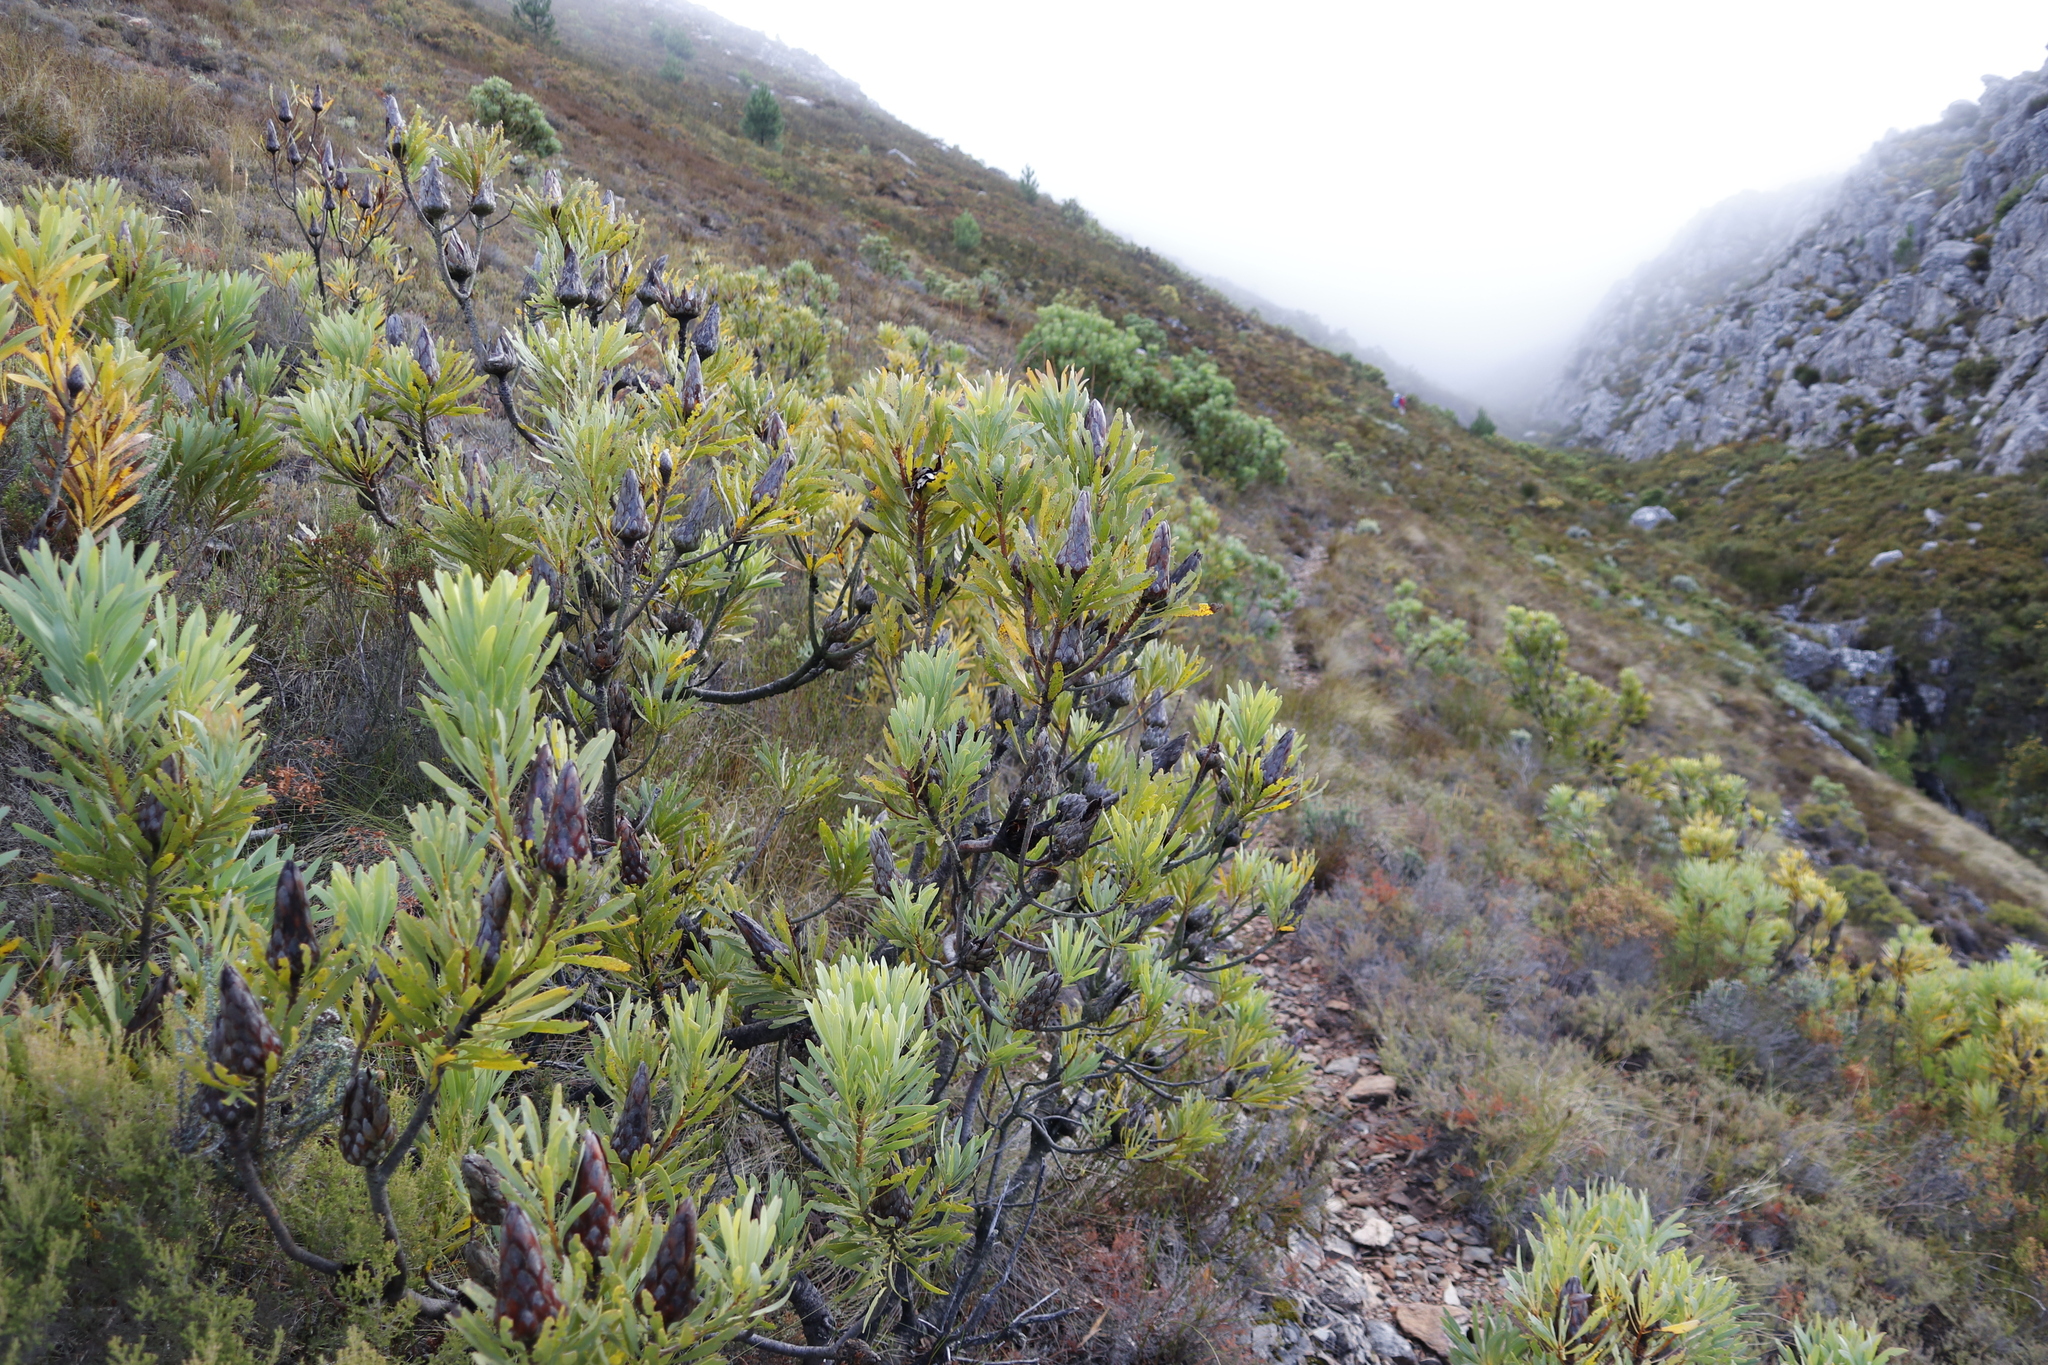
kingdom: Plantae
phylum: Tracheophyta
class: Magnoliopsida
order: Proteales
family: Proteaceae
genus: Protea
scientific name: Protea repens
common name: Sugarbush
